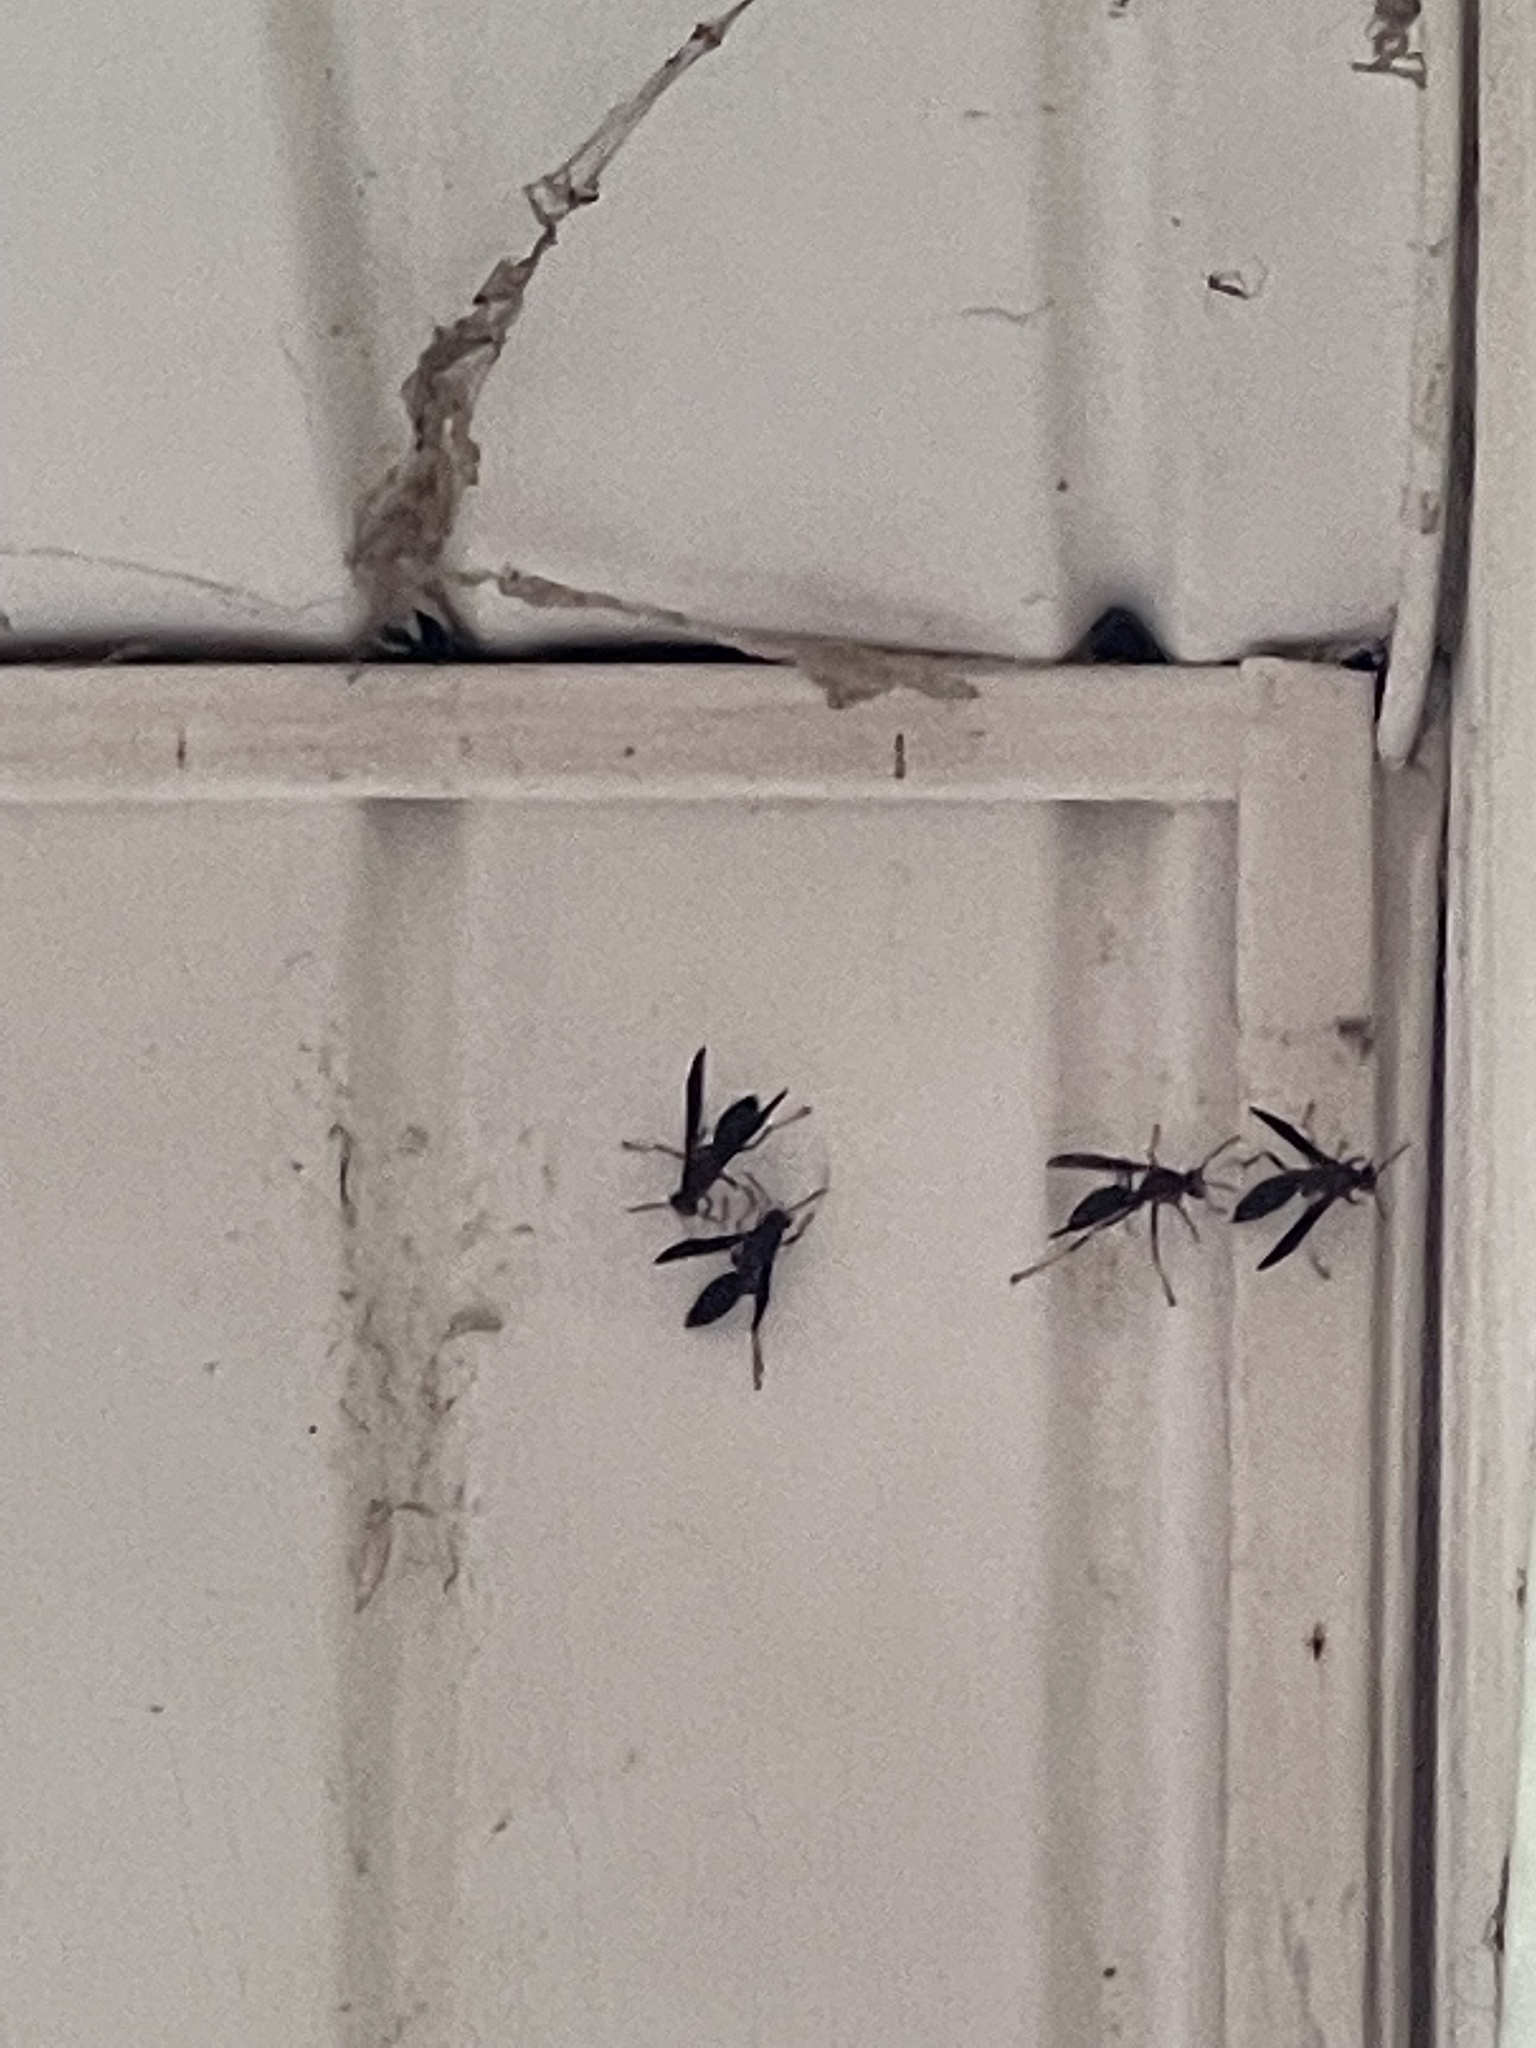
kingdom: Animalia
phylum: Arthropoda
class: Insecta
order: Hymenoptera
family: Vespidae
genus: Fuscopolistes
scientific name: Fuscopolistes
